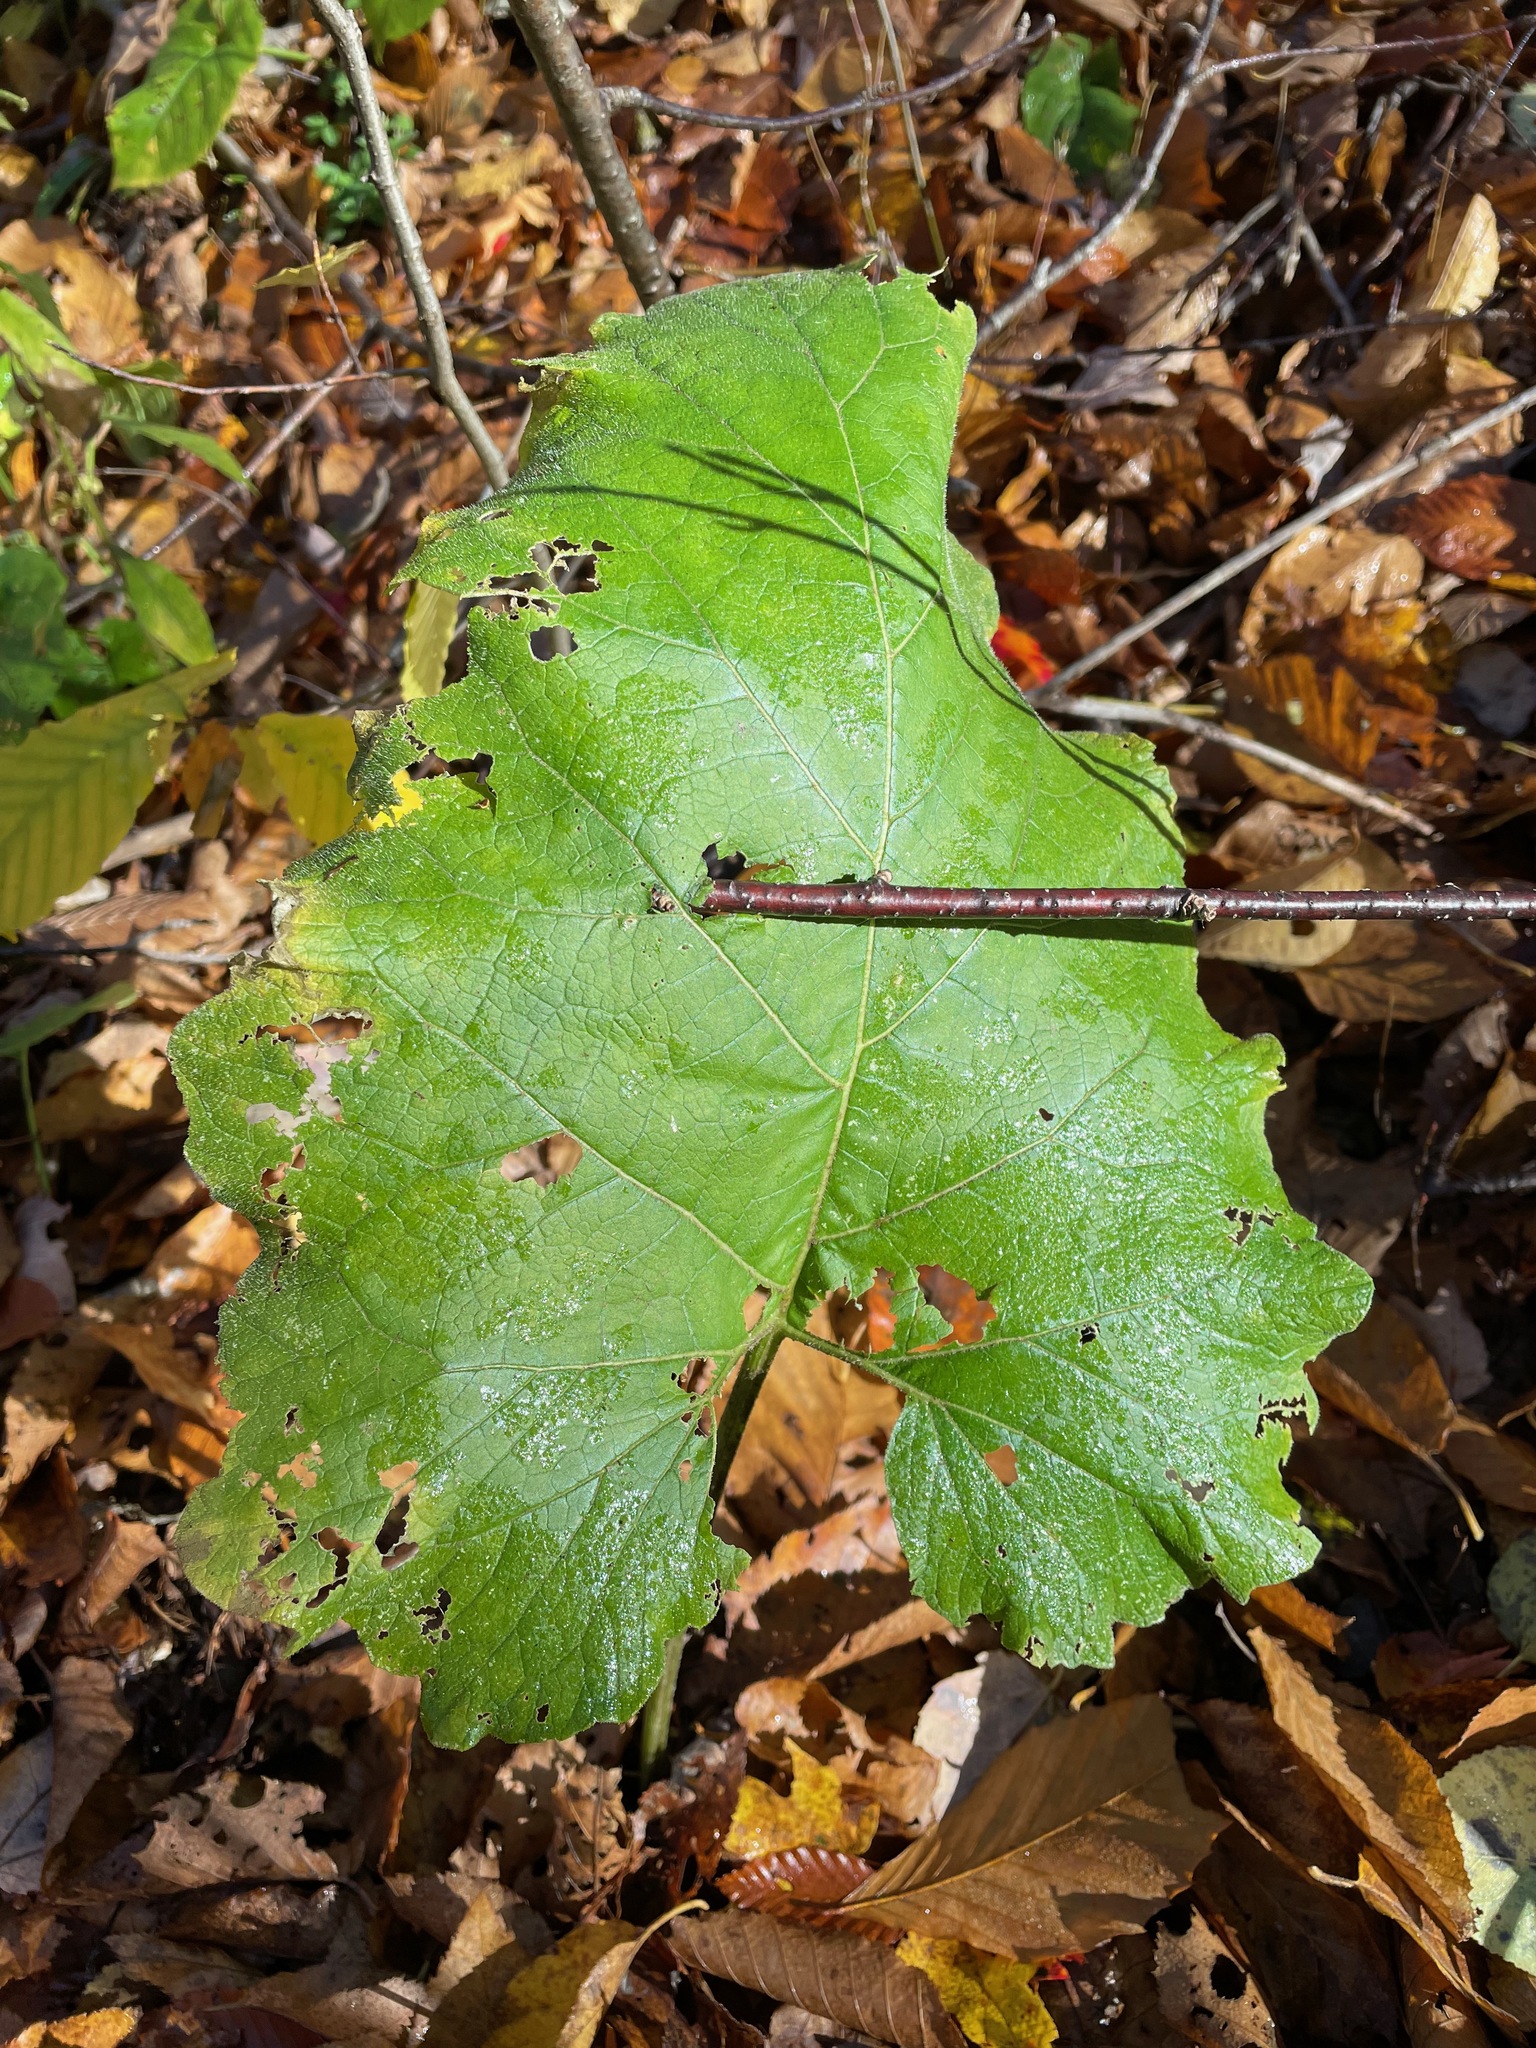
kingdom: Plantae
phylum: Tracheophyta
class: Magnoliopsida
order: Asterales
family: Asteraceae
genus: Arctium
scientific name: Arctium
